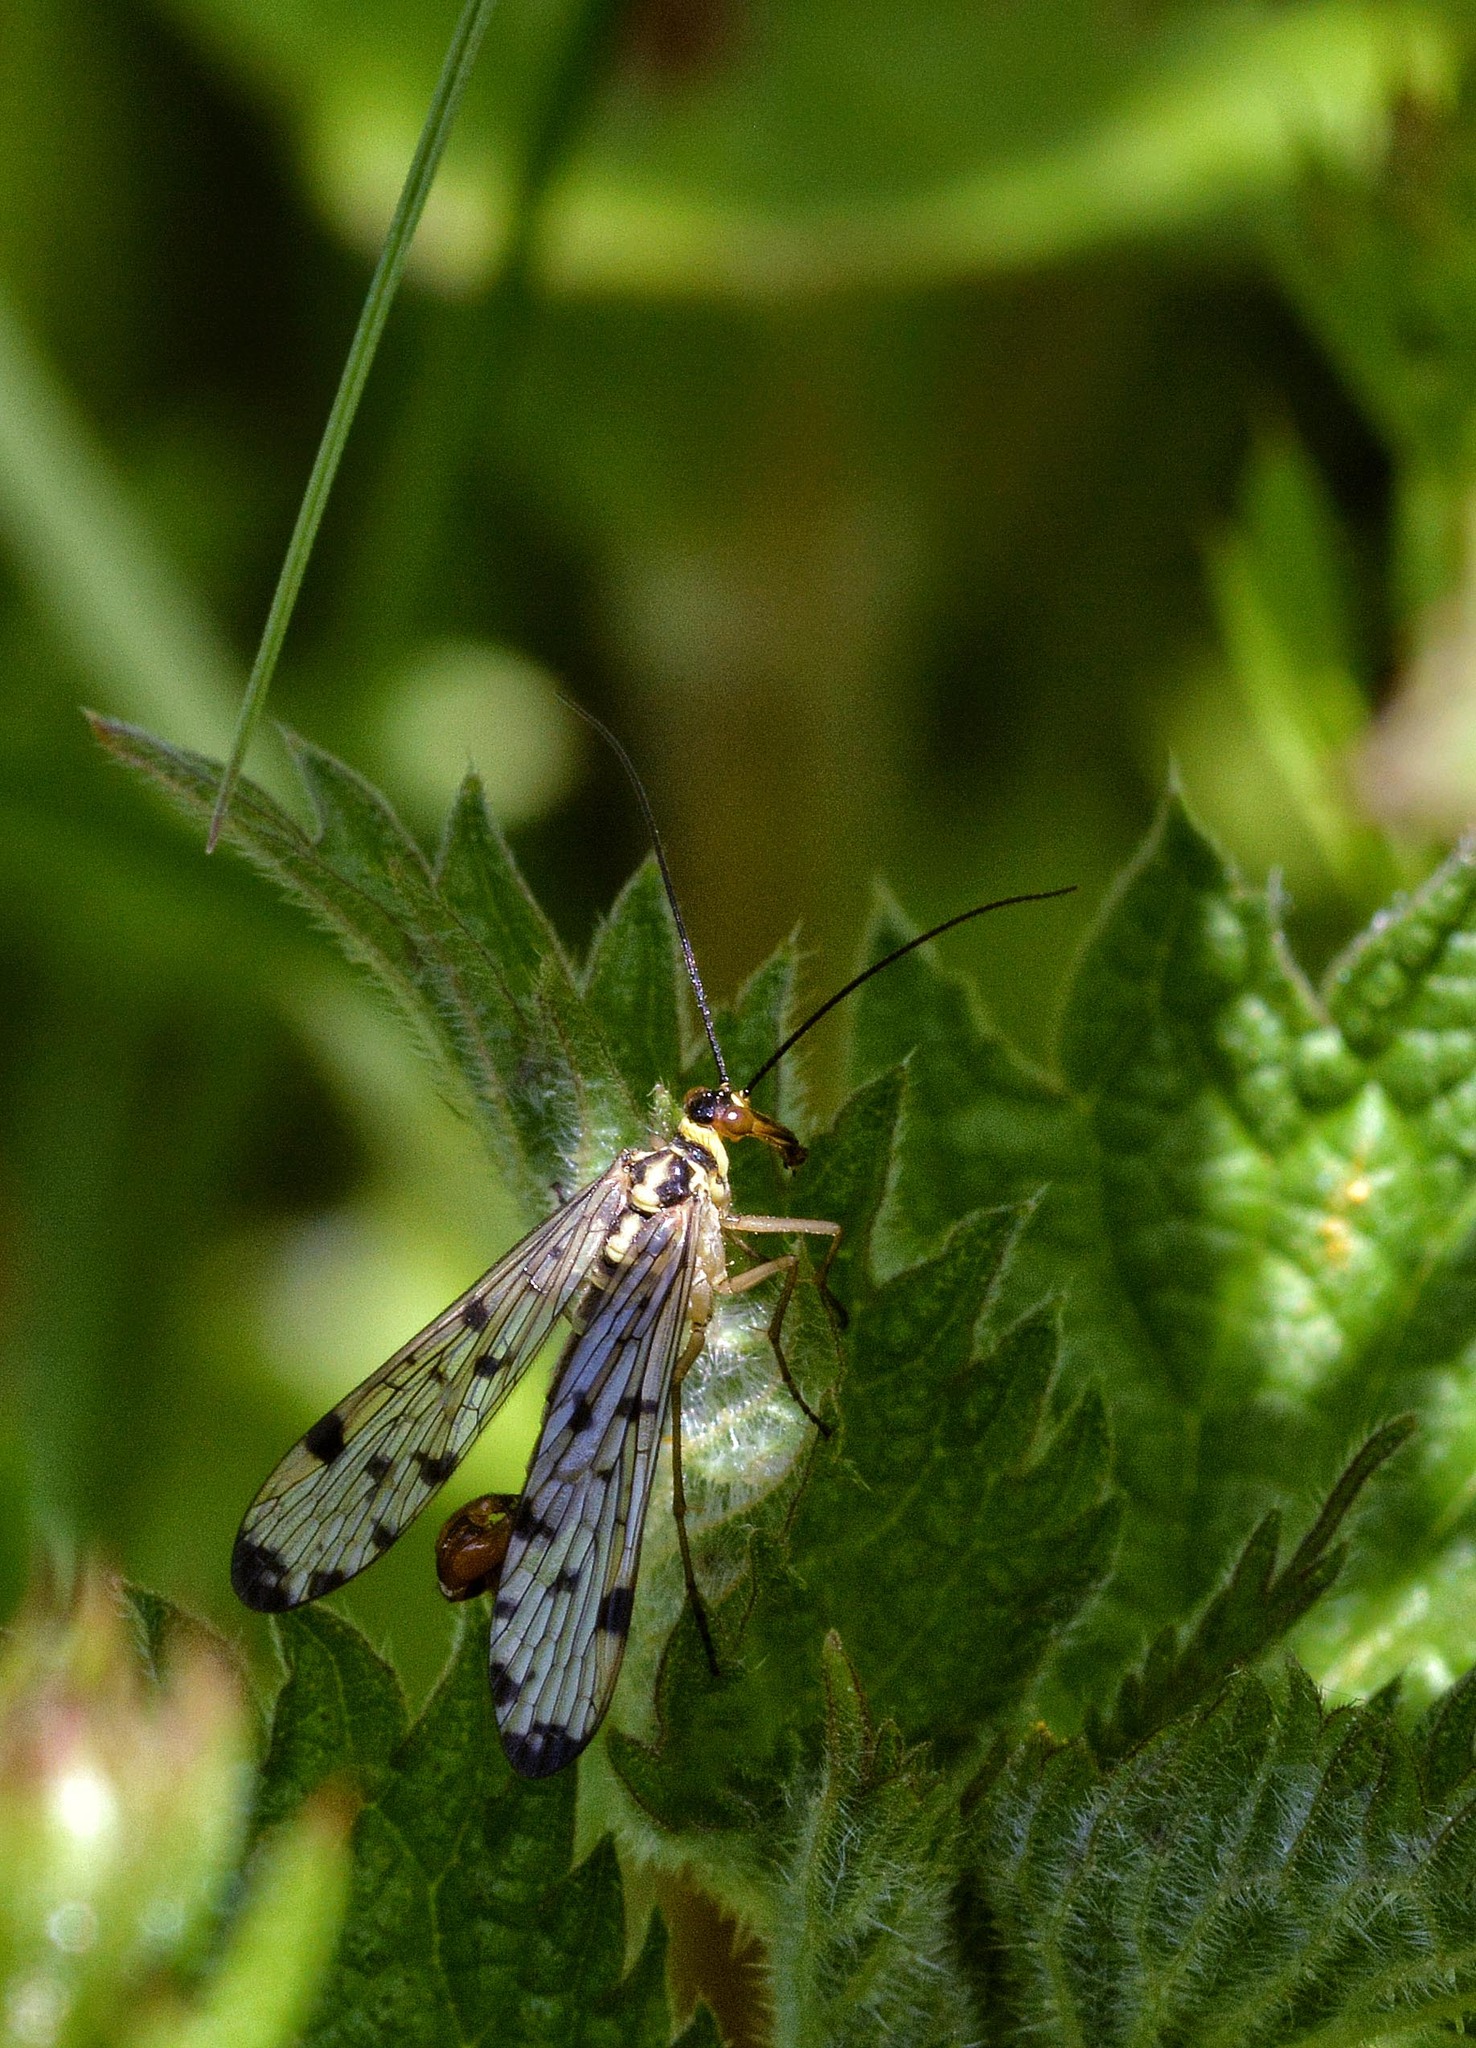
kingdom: Animalia
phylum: Arthropoda
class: Insecta
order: Mecoptera
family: Panorpidae
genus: Panorpa
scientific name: Panorpa germanica
